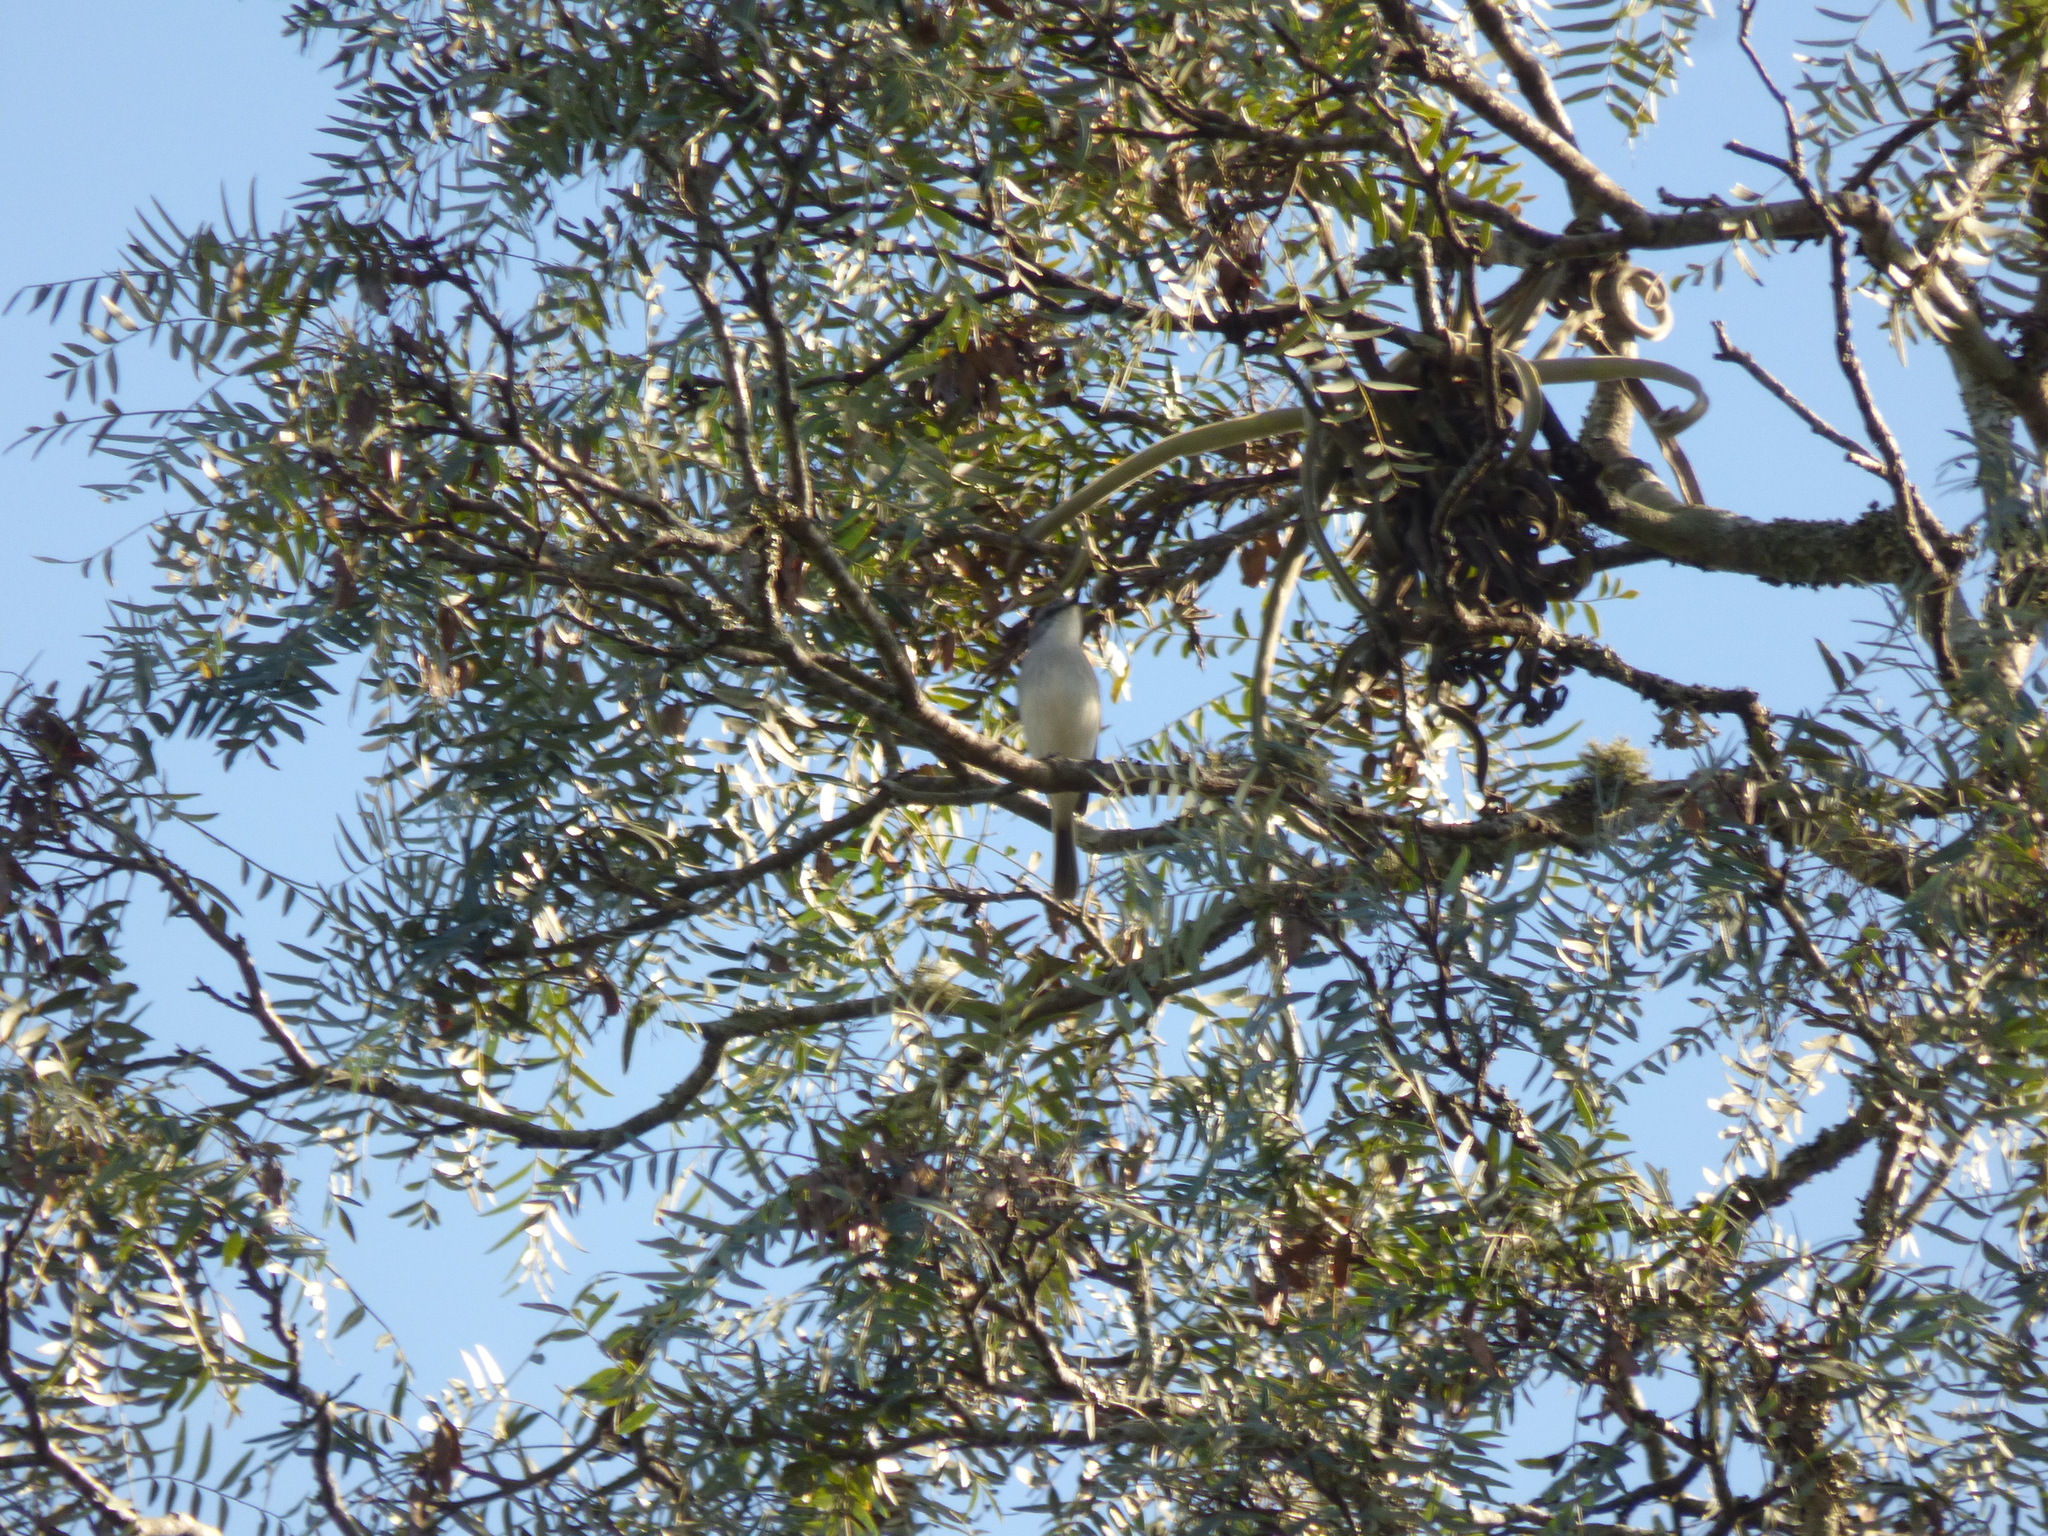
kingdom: Animalia
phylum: Chordata
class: Aves
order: Passeriformes
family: Tyrannidae
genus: Suiriri
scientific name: Suiriri suiriri
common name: Suiriri flycatcher
